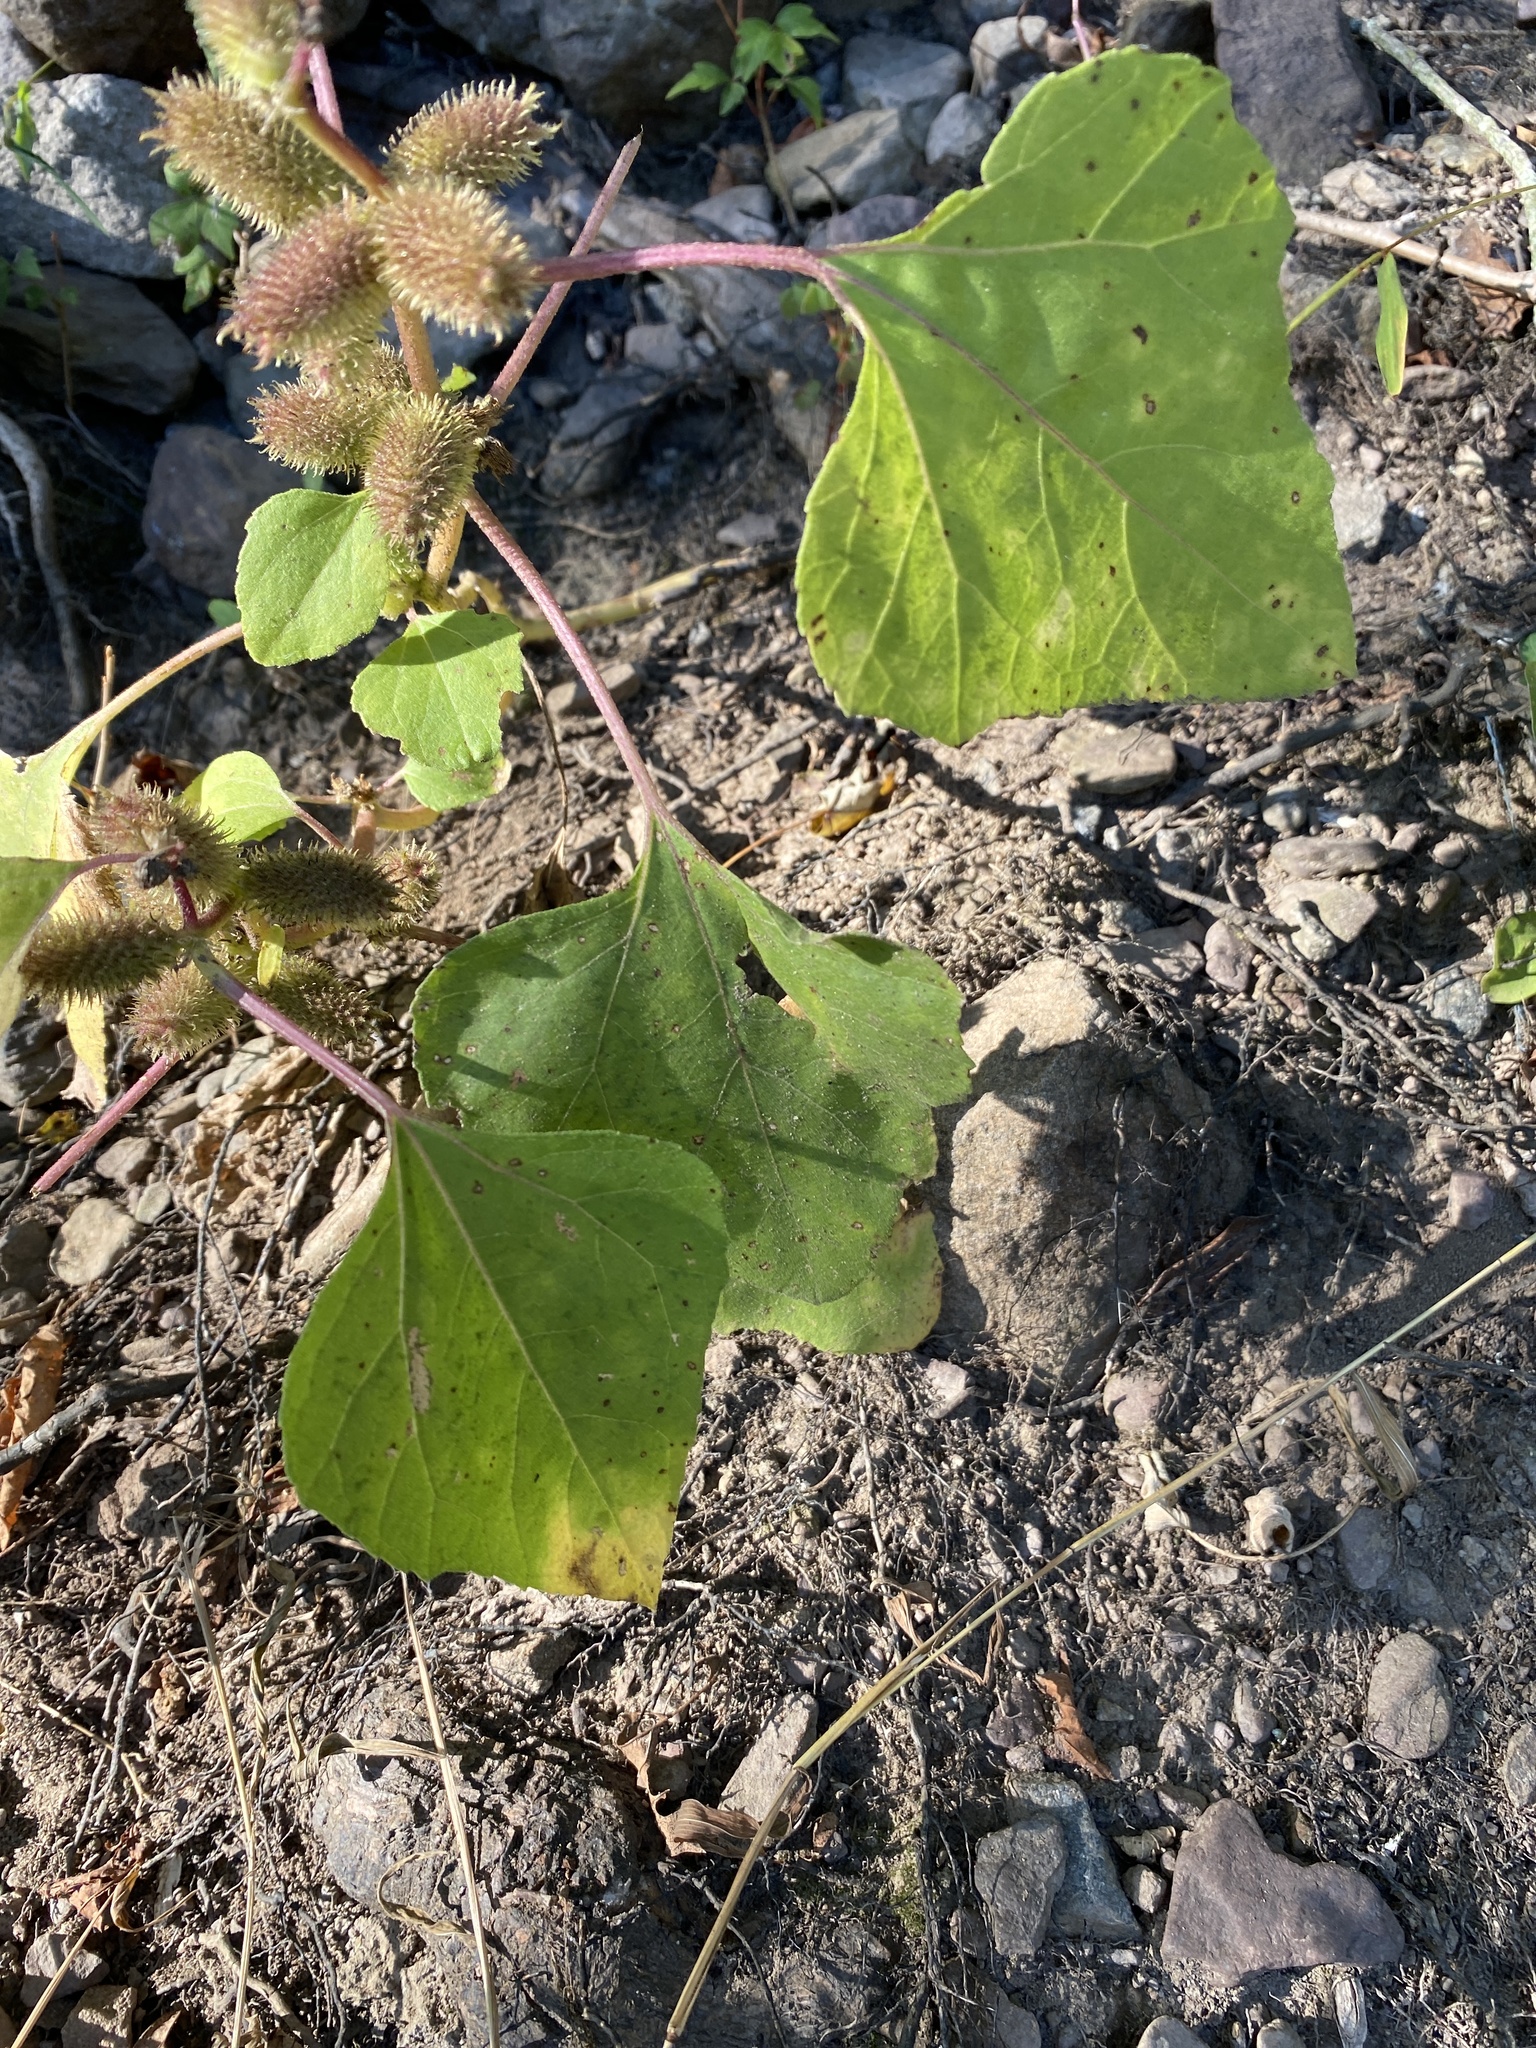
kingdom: Plantae
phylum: Tracheophyta
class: Magnoliopsida
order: Asterales
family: Asteraceae
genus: Xanthium
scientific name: Xanthium strumarium
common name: Rough cocklebur
